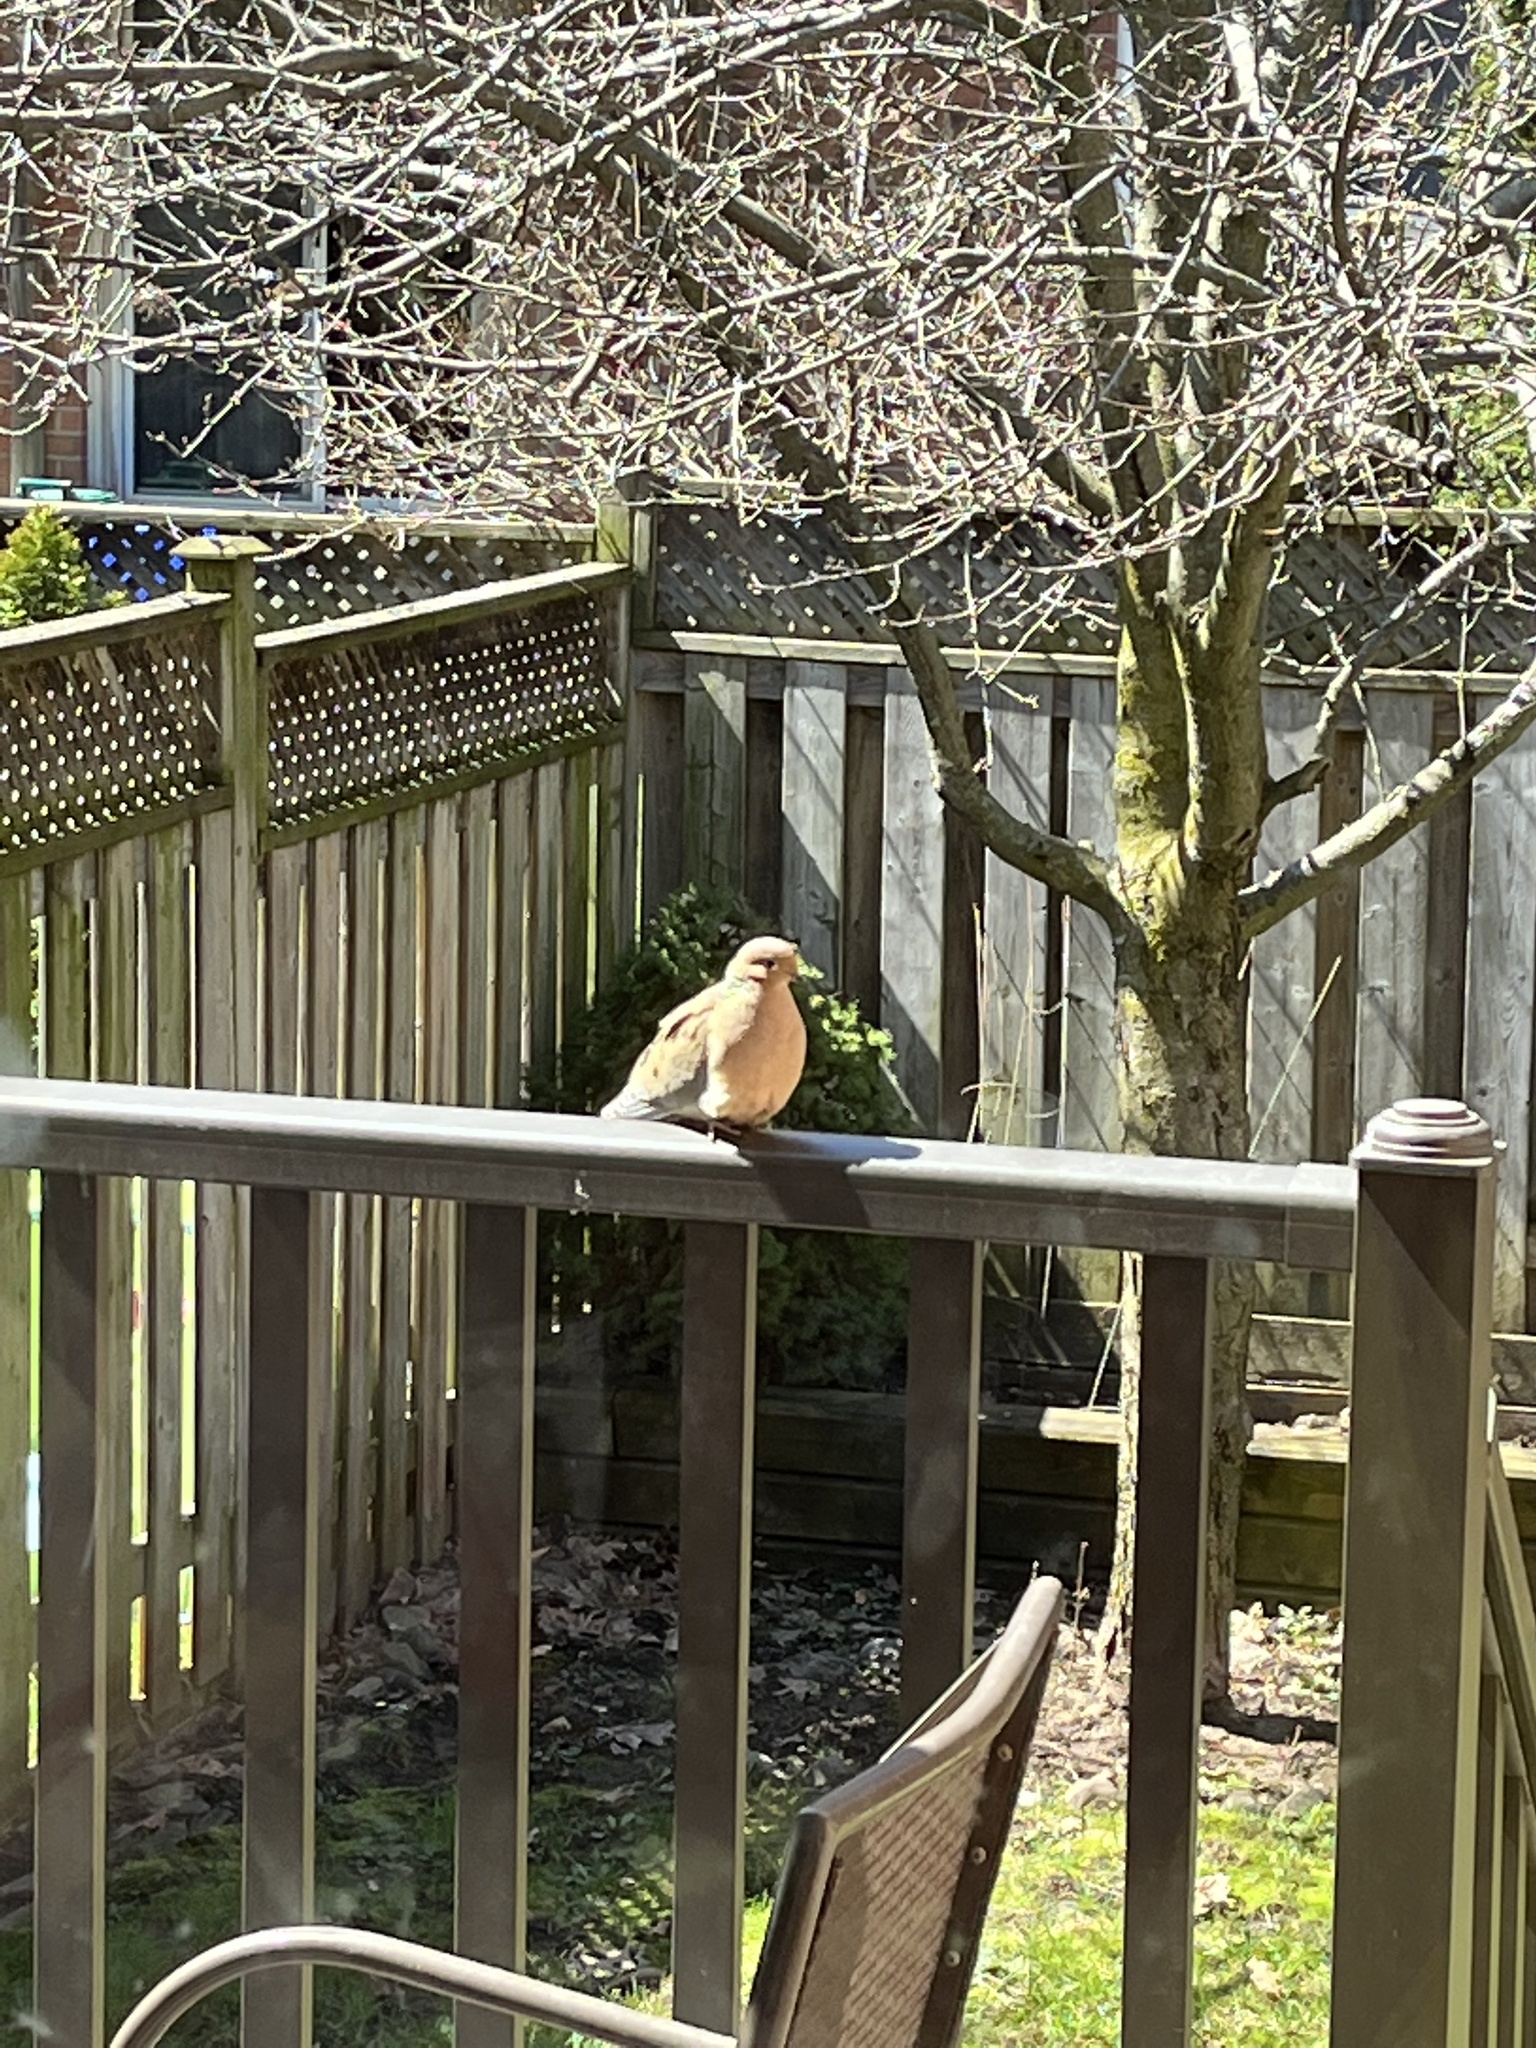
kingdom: Animalia
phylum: Chordata
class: Aves
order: Columbiformes
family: Columbidae
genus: Zenaida
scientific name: Zenaida macroura
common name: Mourning dove
